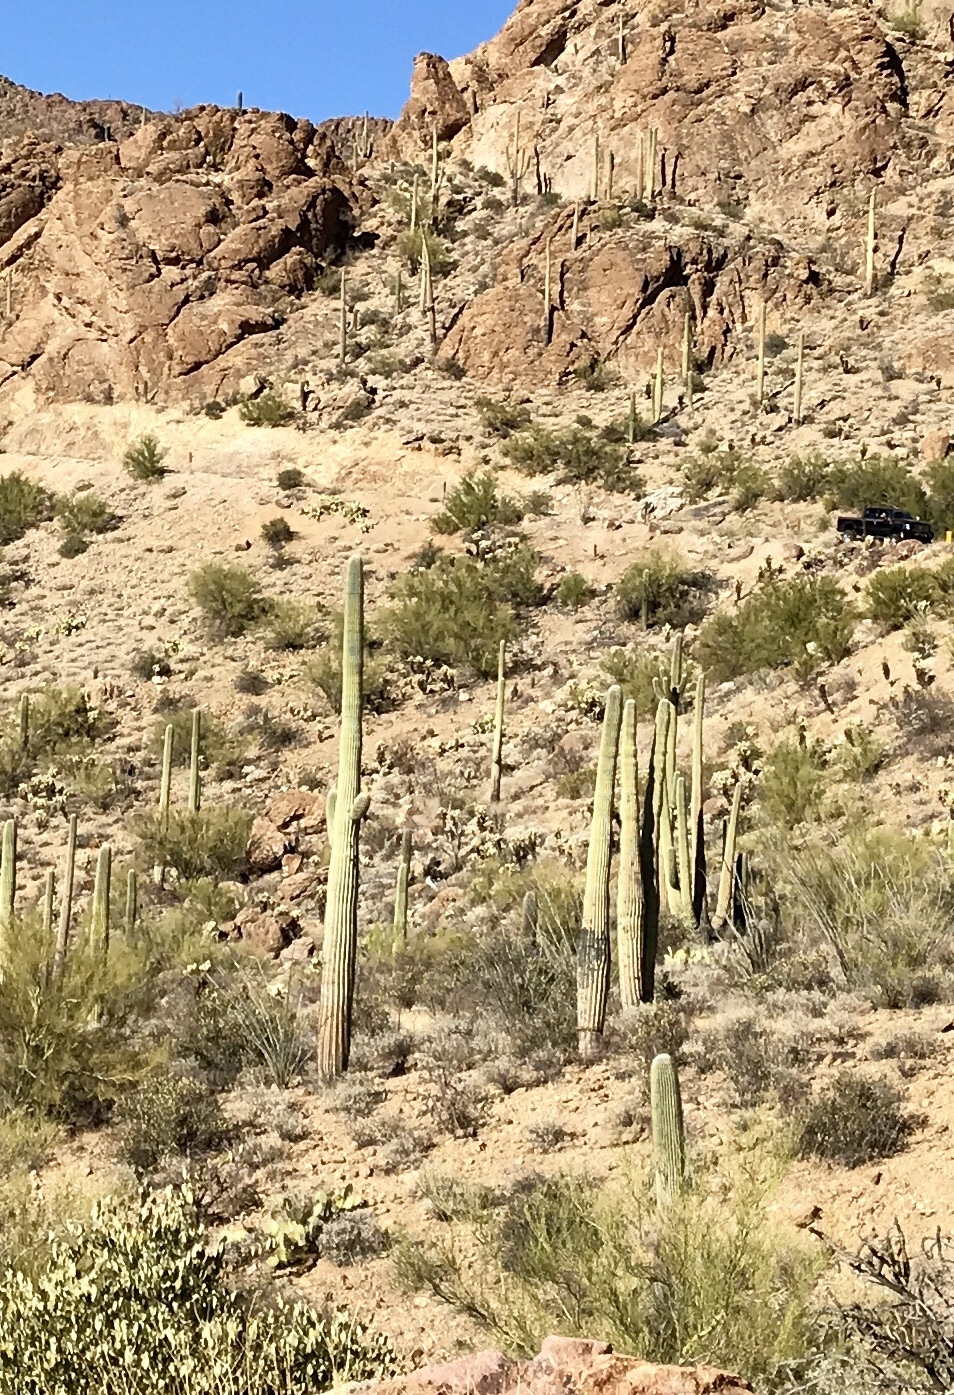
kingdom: Plantae
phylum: Tracheophyta
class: Magnoliopsida
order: Caryophyllales
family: Cactaceae
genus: Carnegiea
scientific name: Carnegiea gigantea
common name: Saguaro
